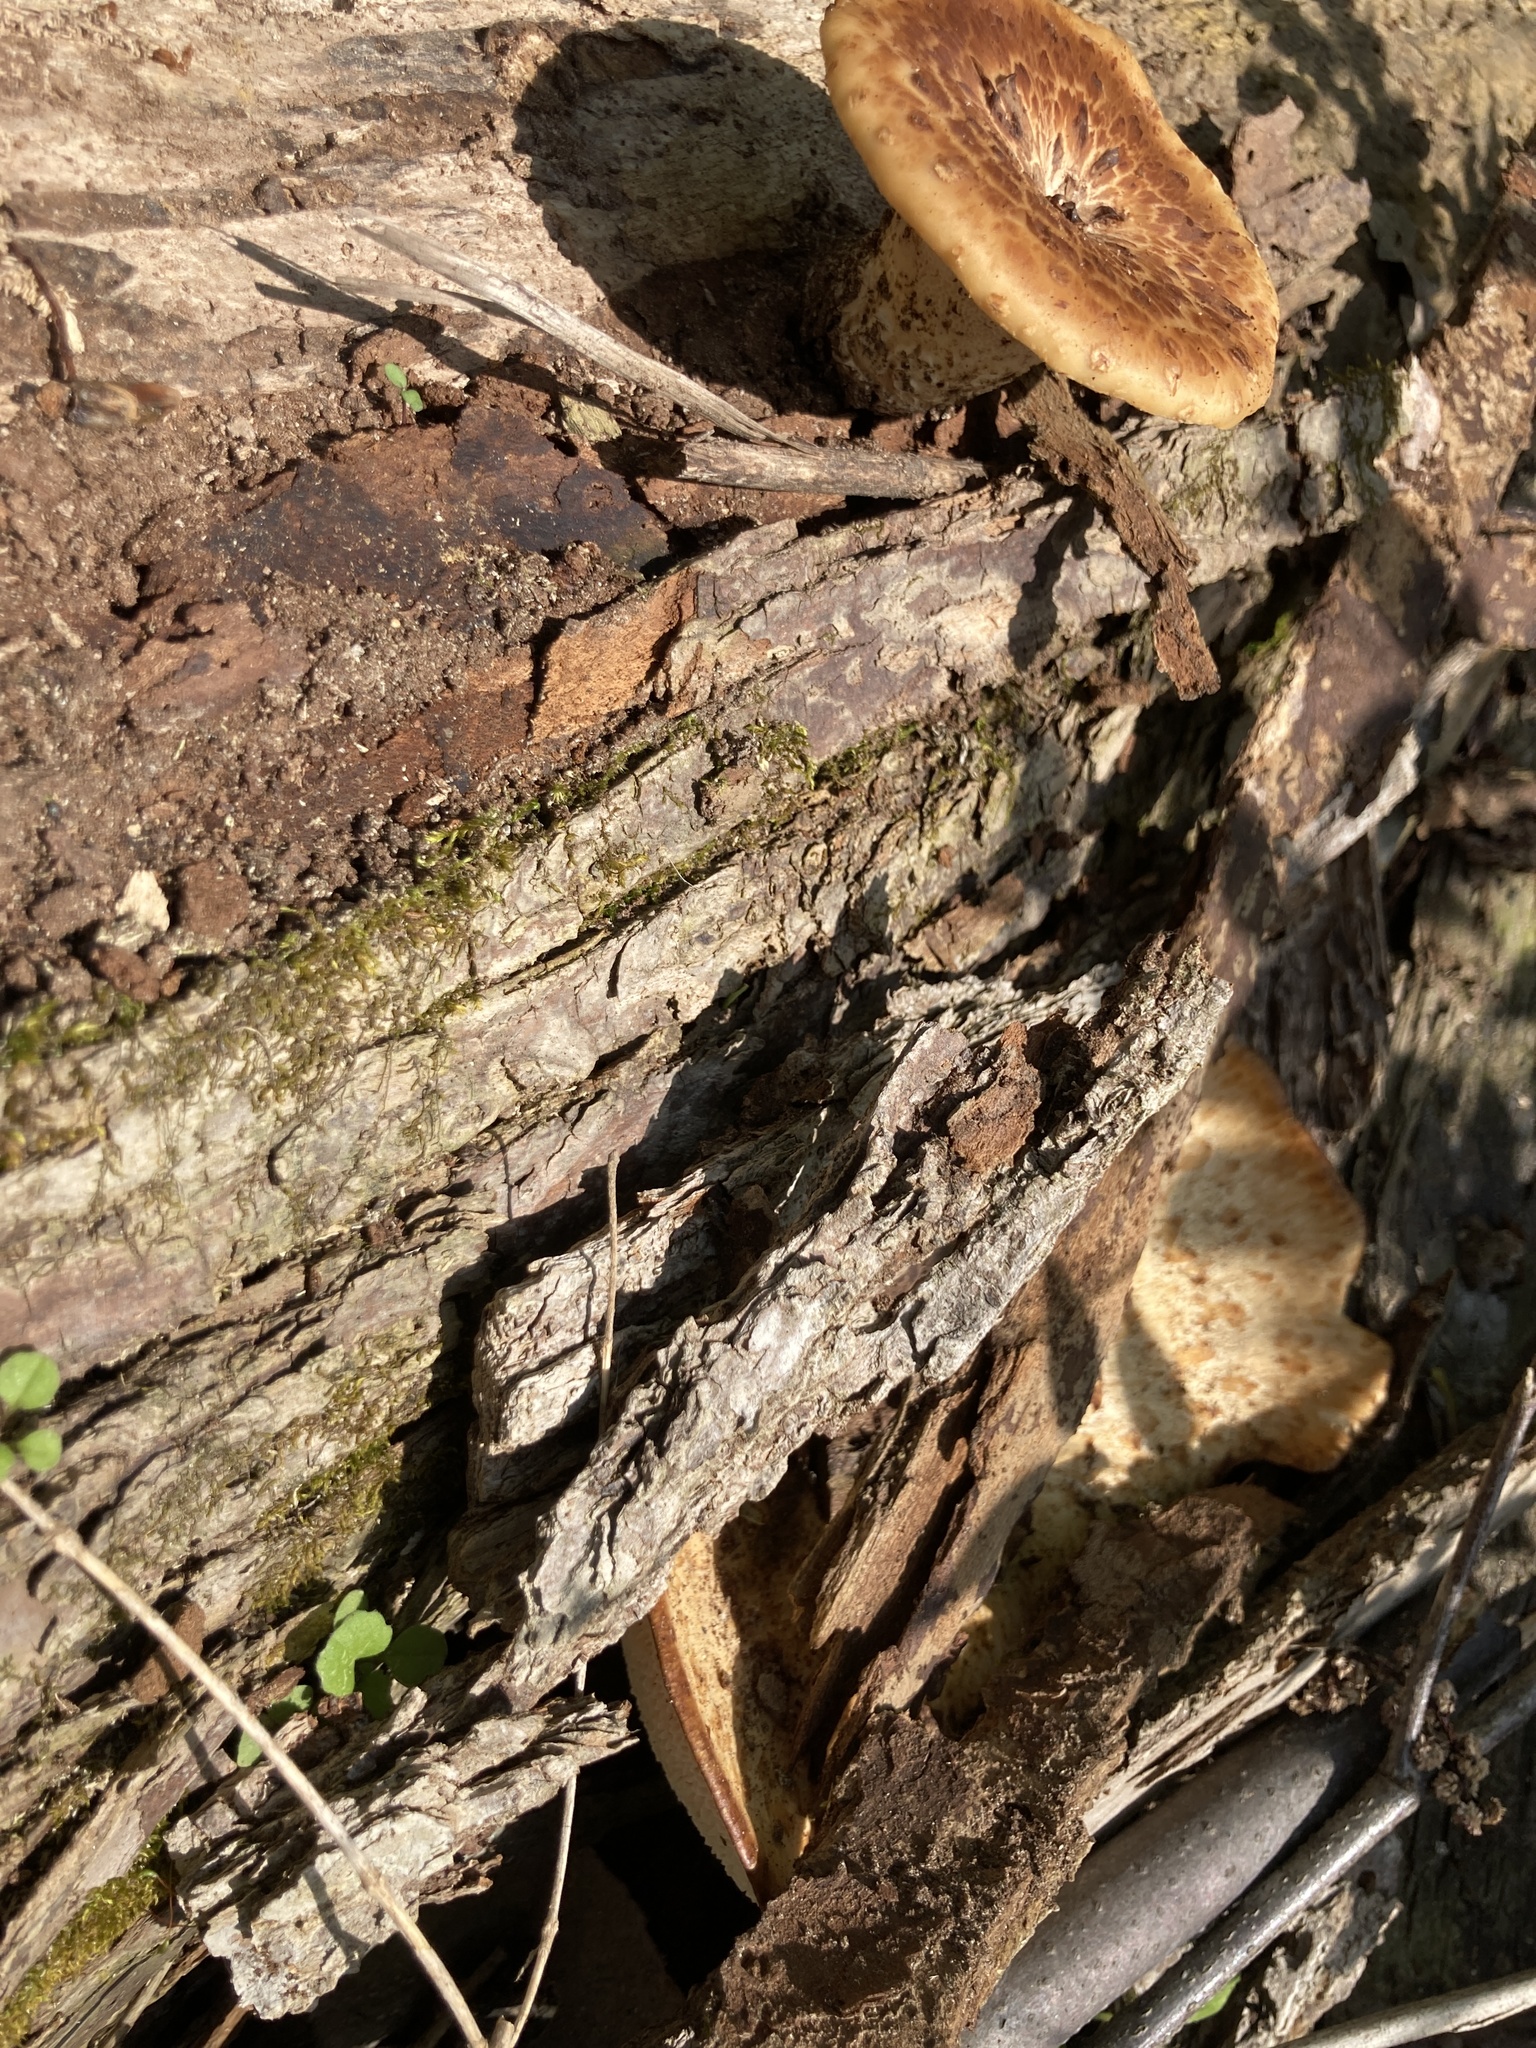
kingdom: Fungi
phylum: Basidiomycota
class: Agaricomycetes
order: Polyporales
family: Polyporaceae
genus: Cerioporus
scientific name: Cerioporus squamosus
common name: Dryad's saddle
